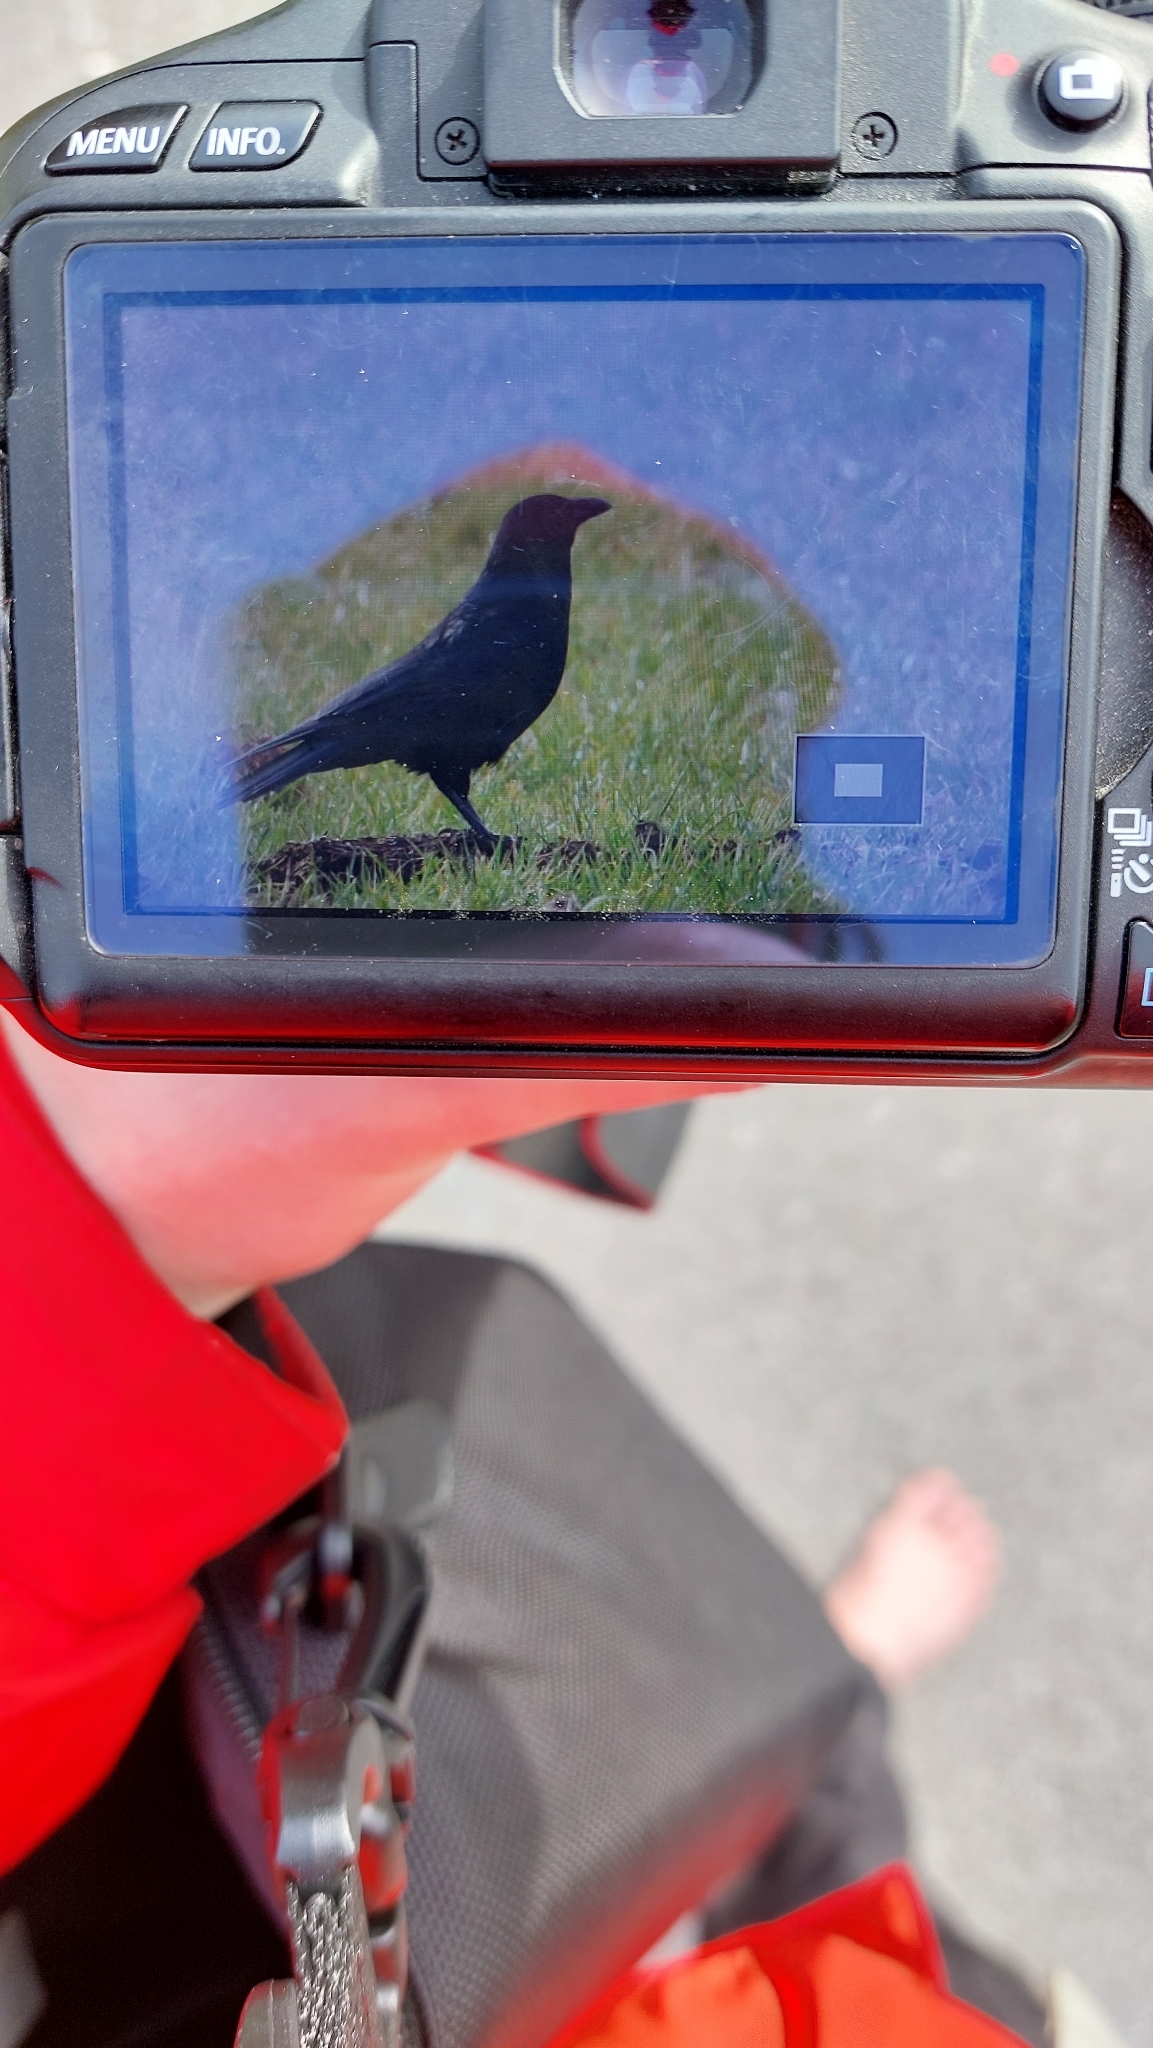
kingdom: Animalia
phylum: Chordata
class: Aves
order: Passeriformes
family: Corvidae
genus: Corvus
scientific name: Corvus corone
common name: Carrion crow
